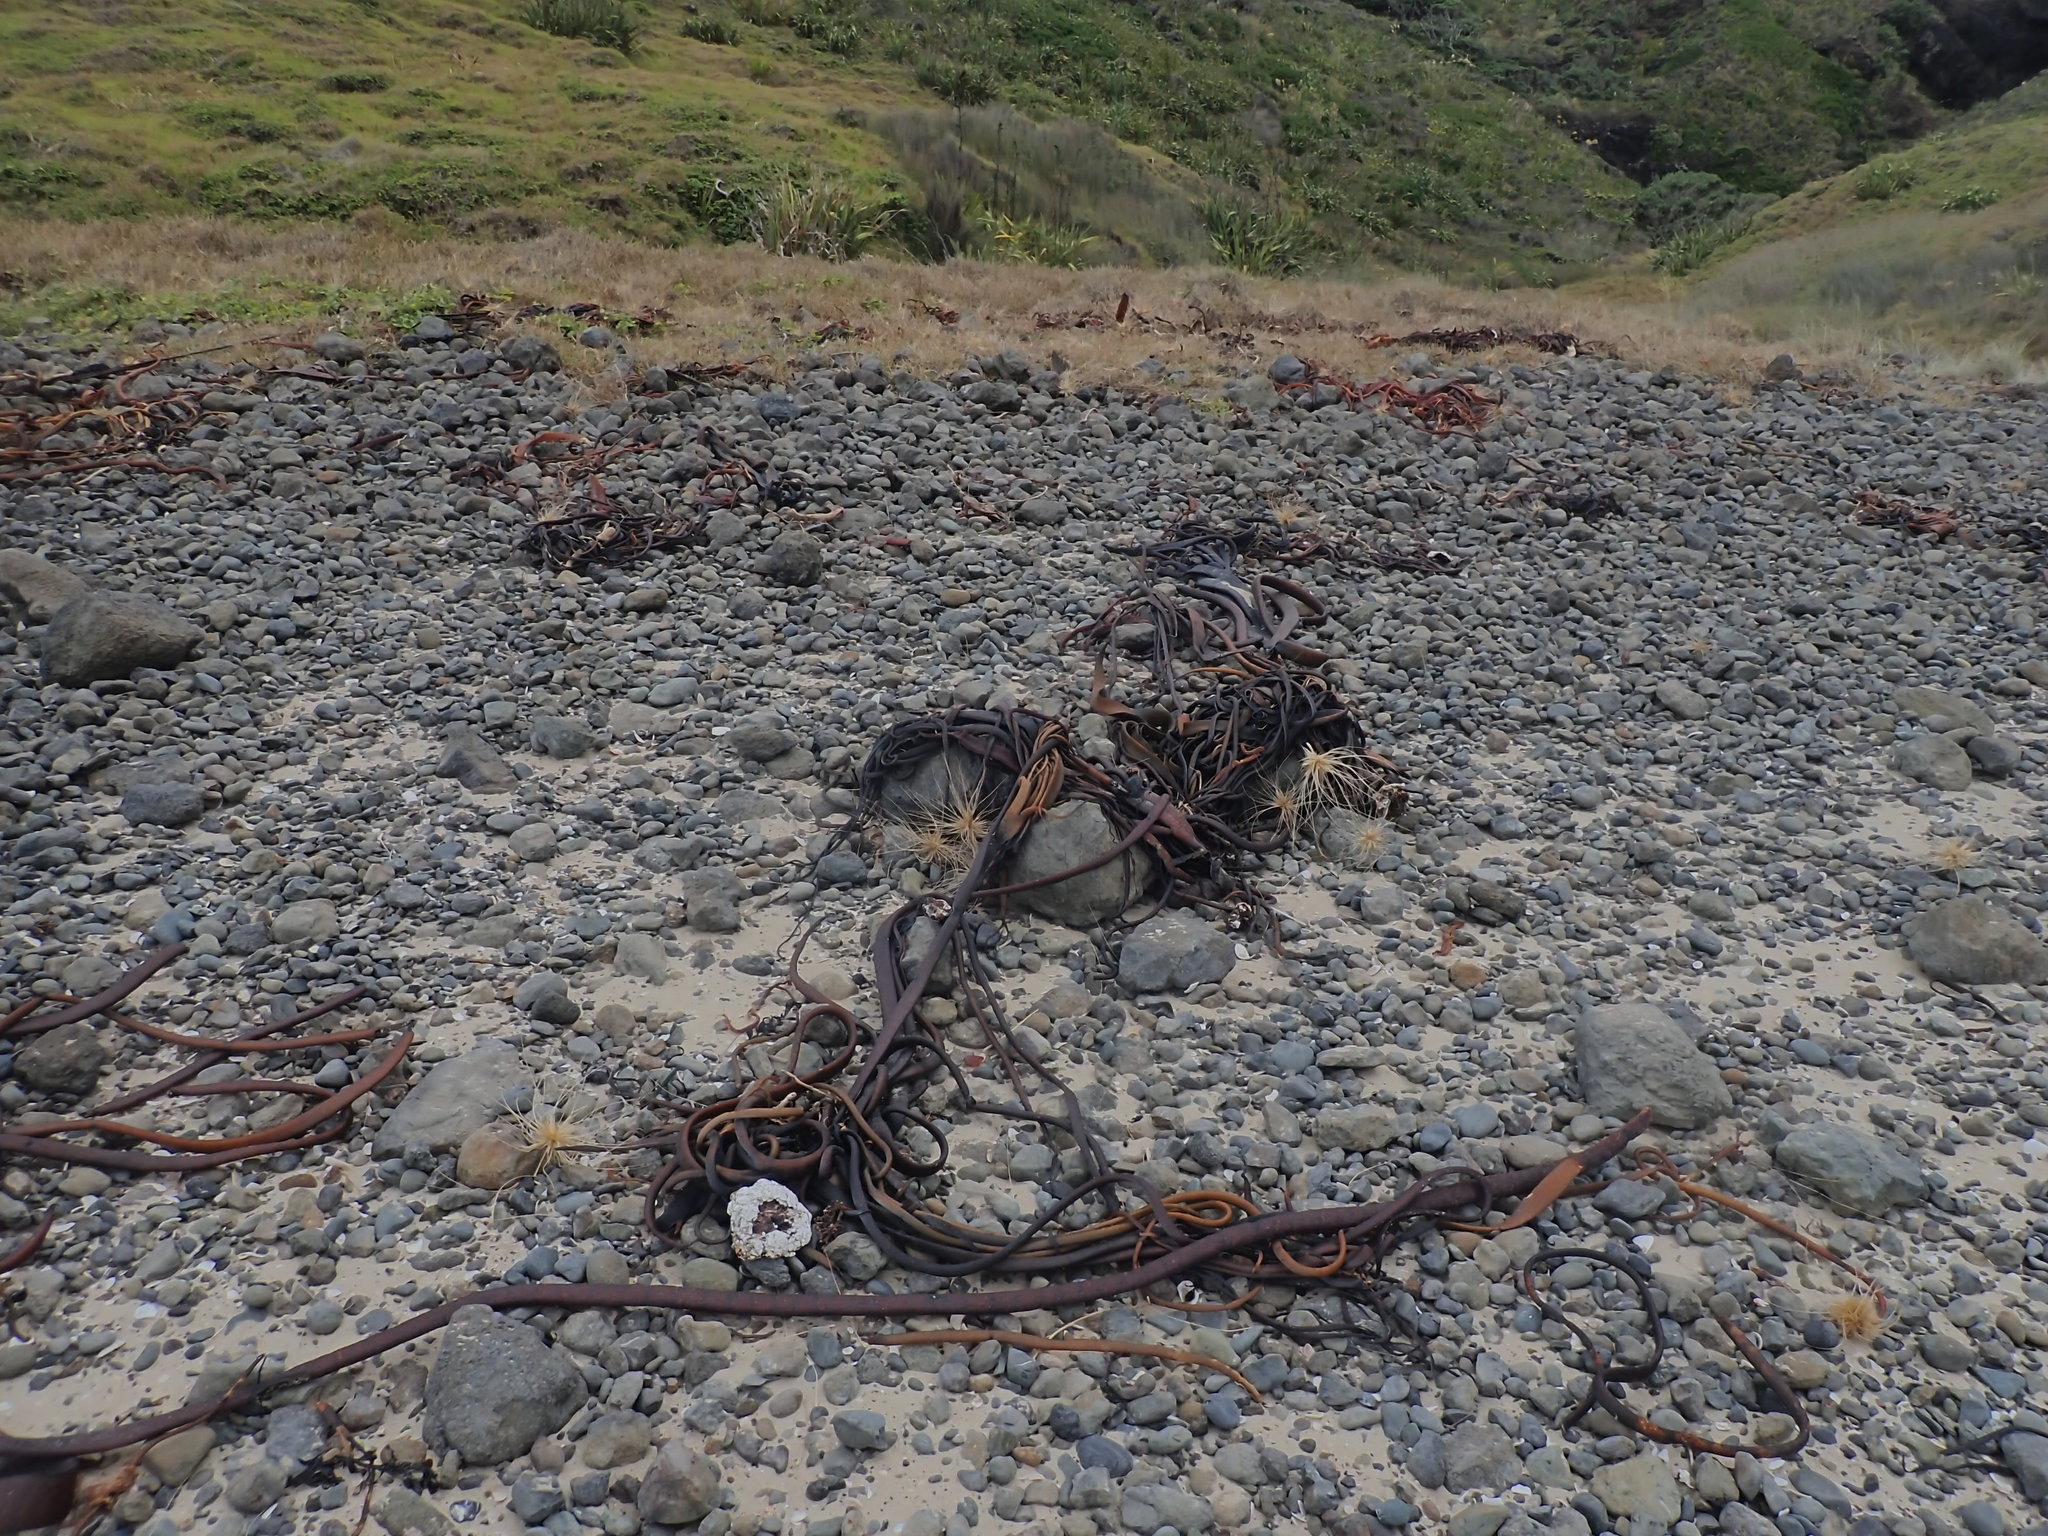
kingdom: Chromista
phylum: Ochrophyta
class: Phaeophyceae
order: Fucales
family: Durvillaeaceae
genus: Durvillaea
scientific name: Durvillaea antarctica
